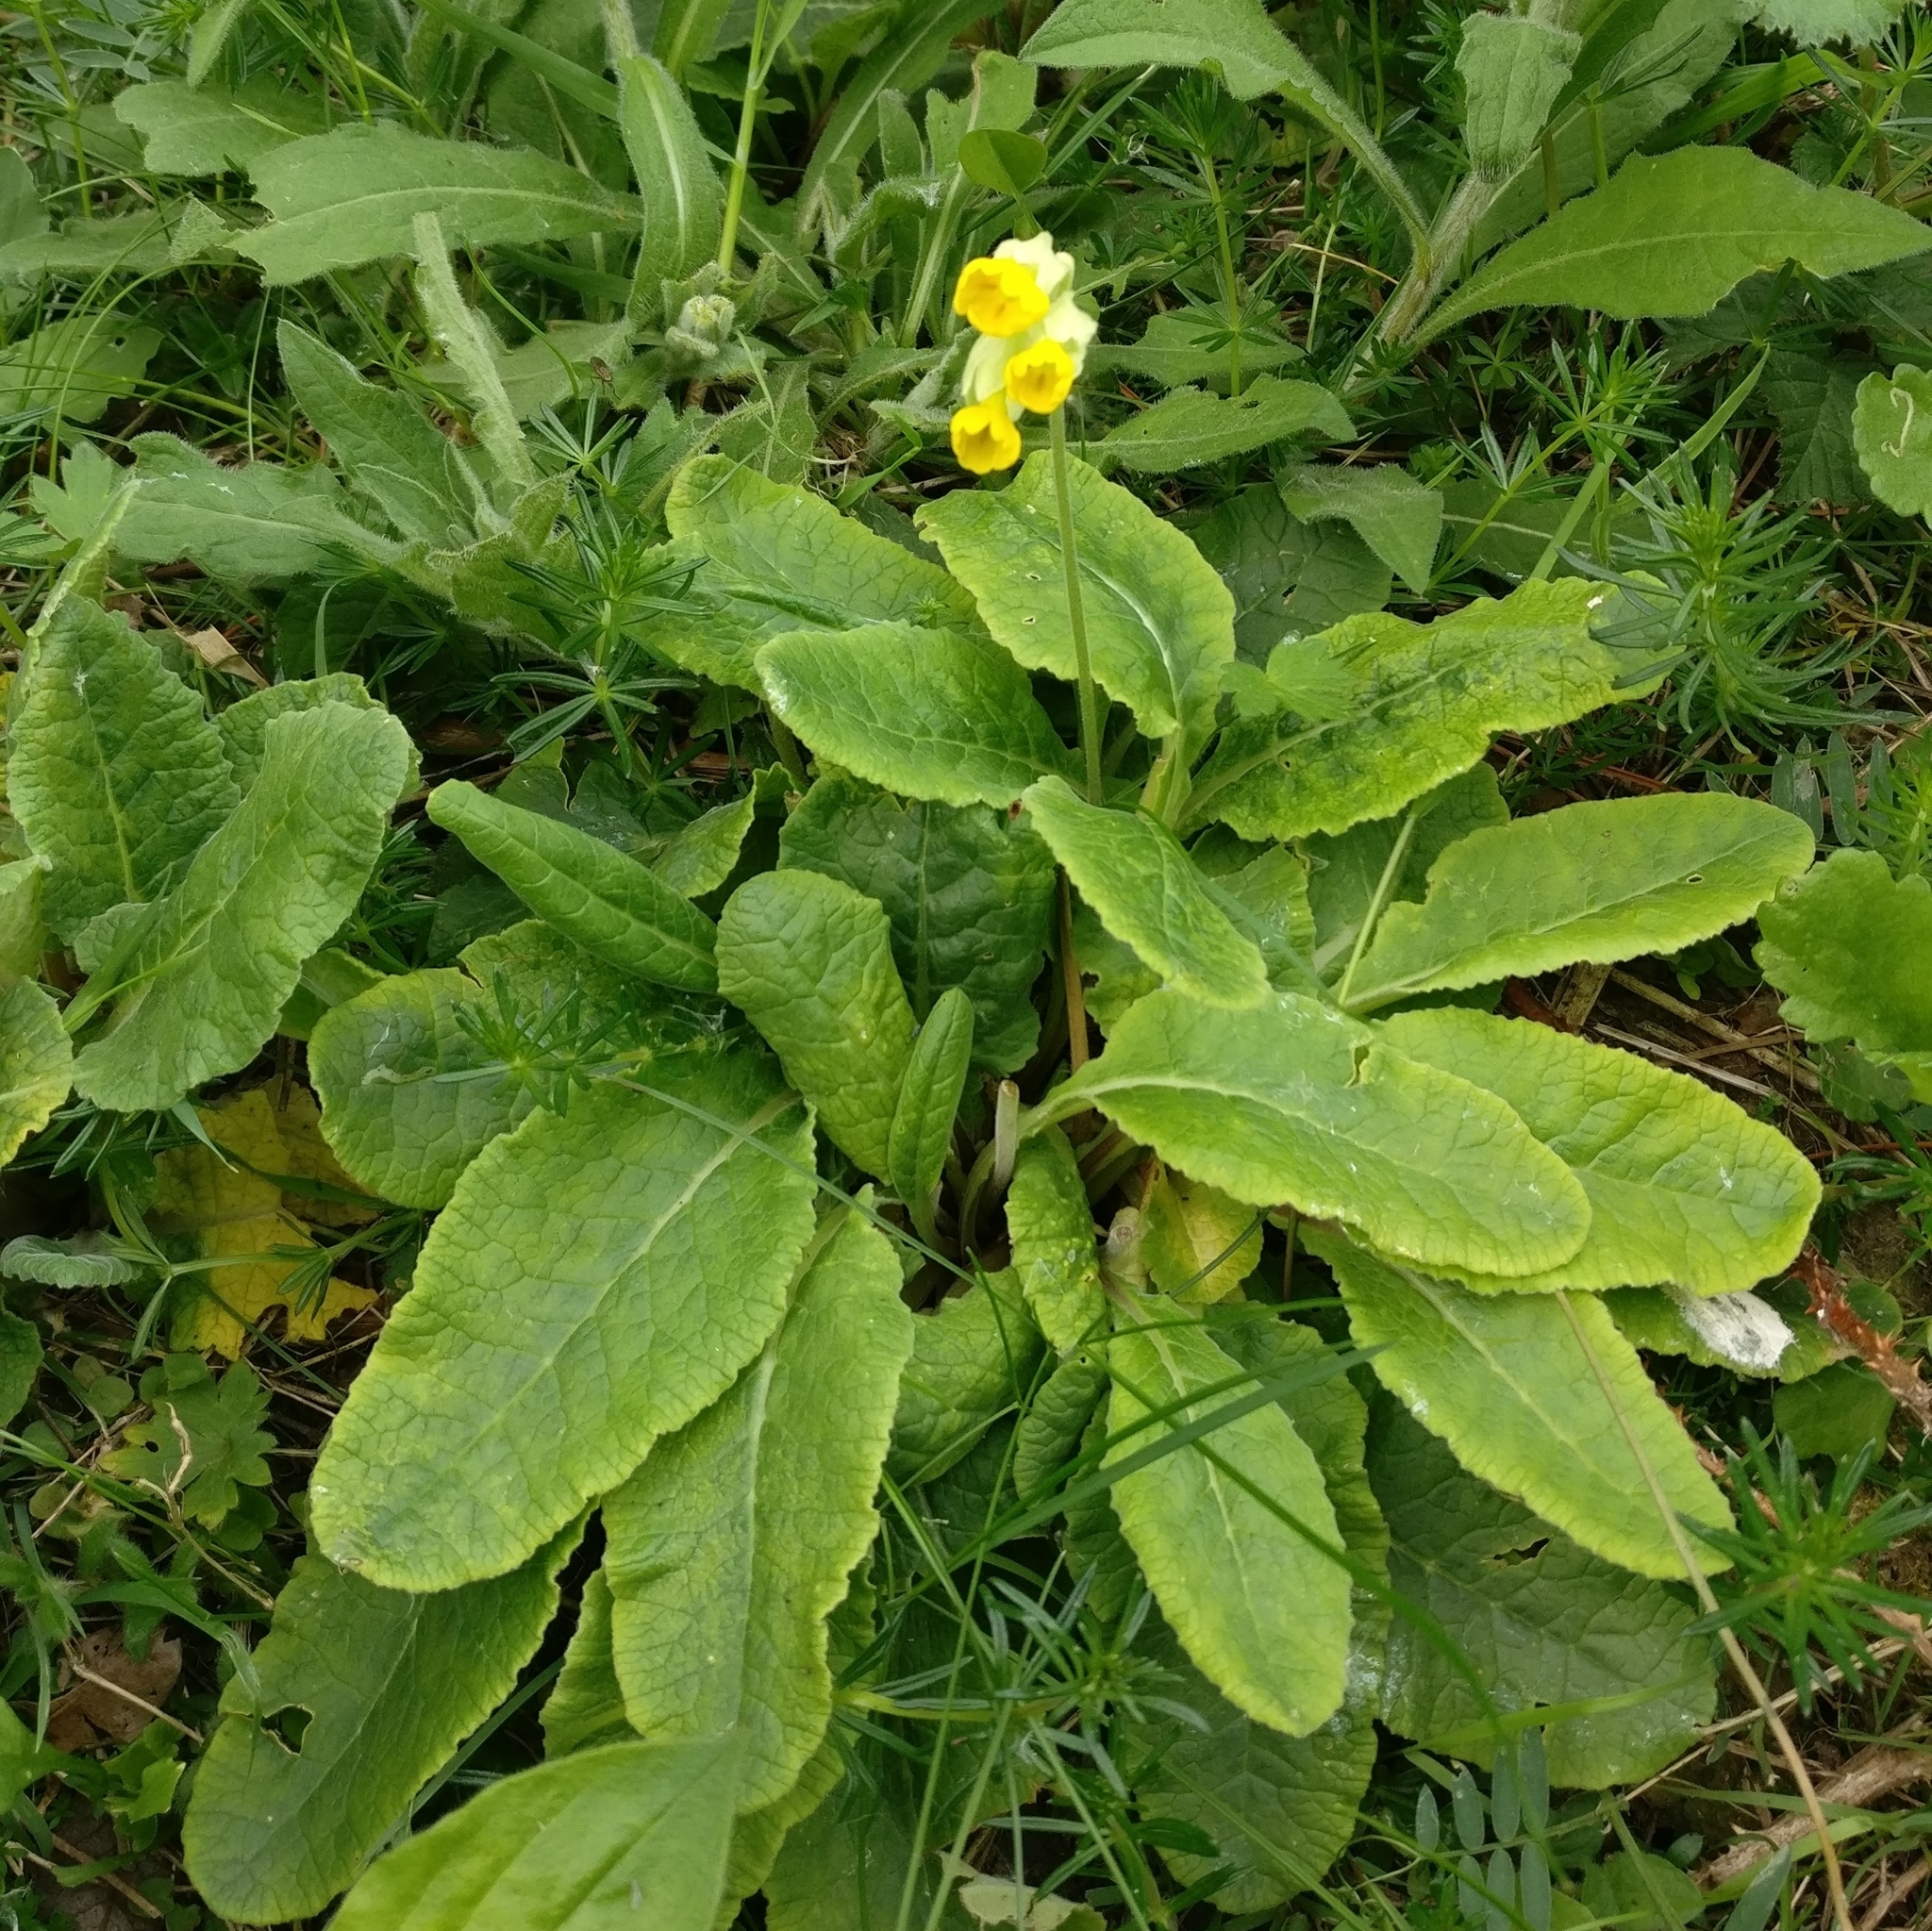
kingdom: Plantae
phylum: Tracheophyta
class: Magnoliopsida
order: Ericales
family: Primulaceae
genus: Primula
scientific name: Primula veris
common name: Cowslip
